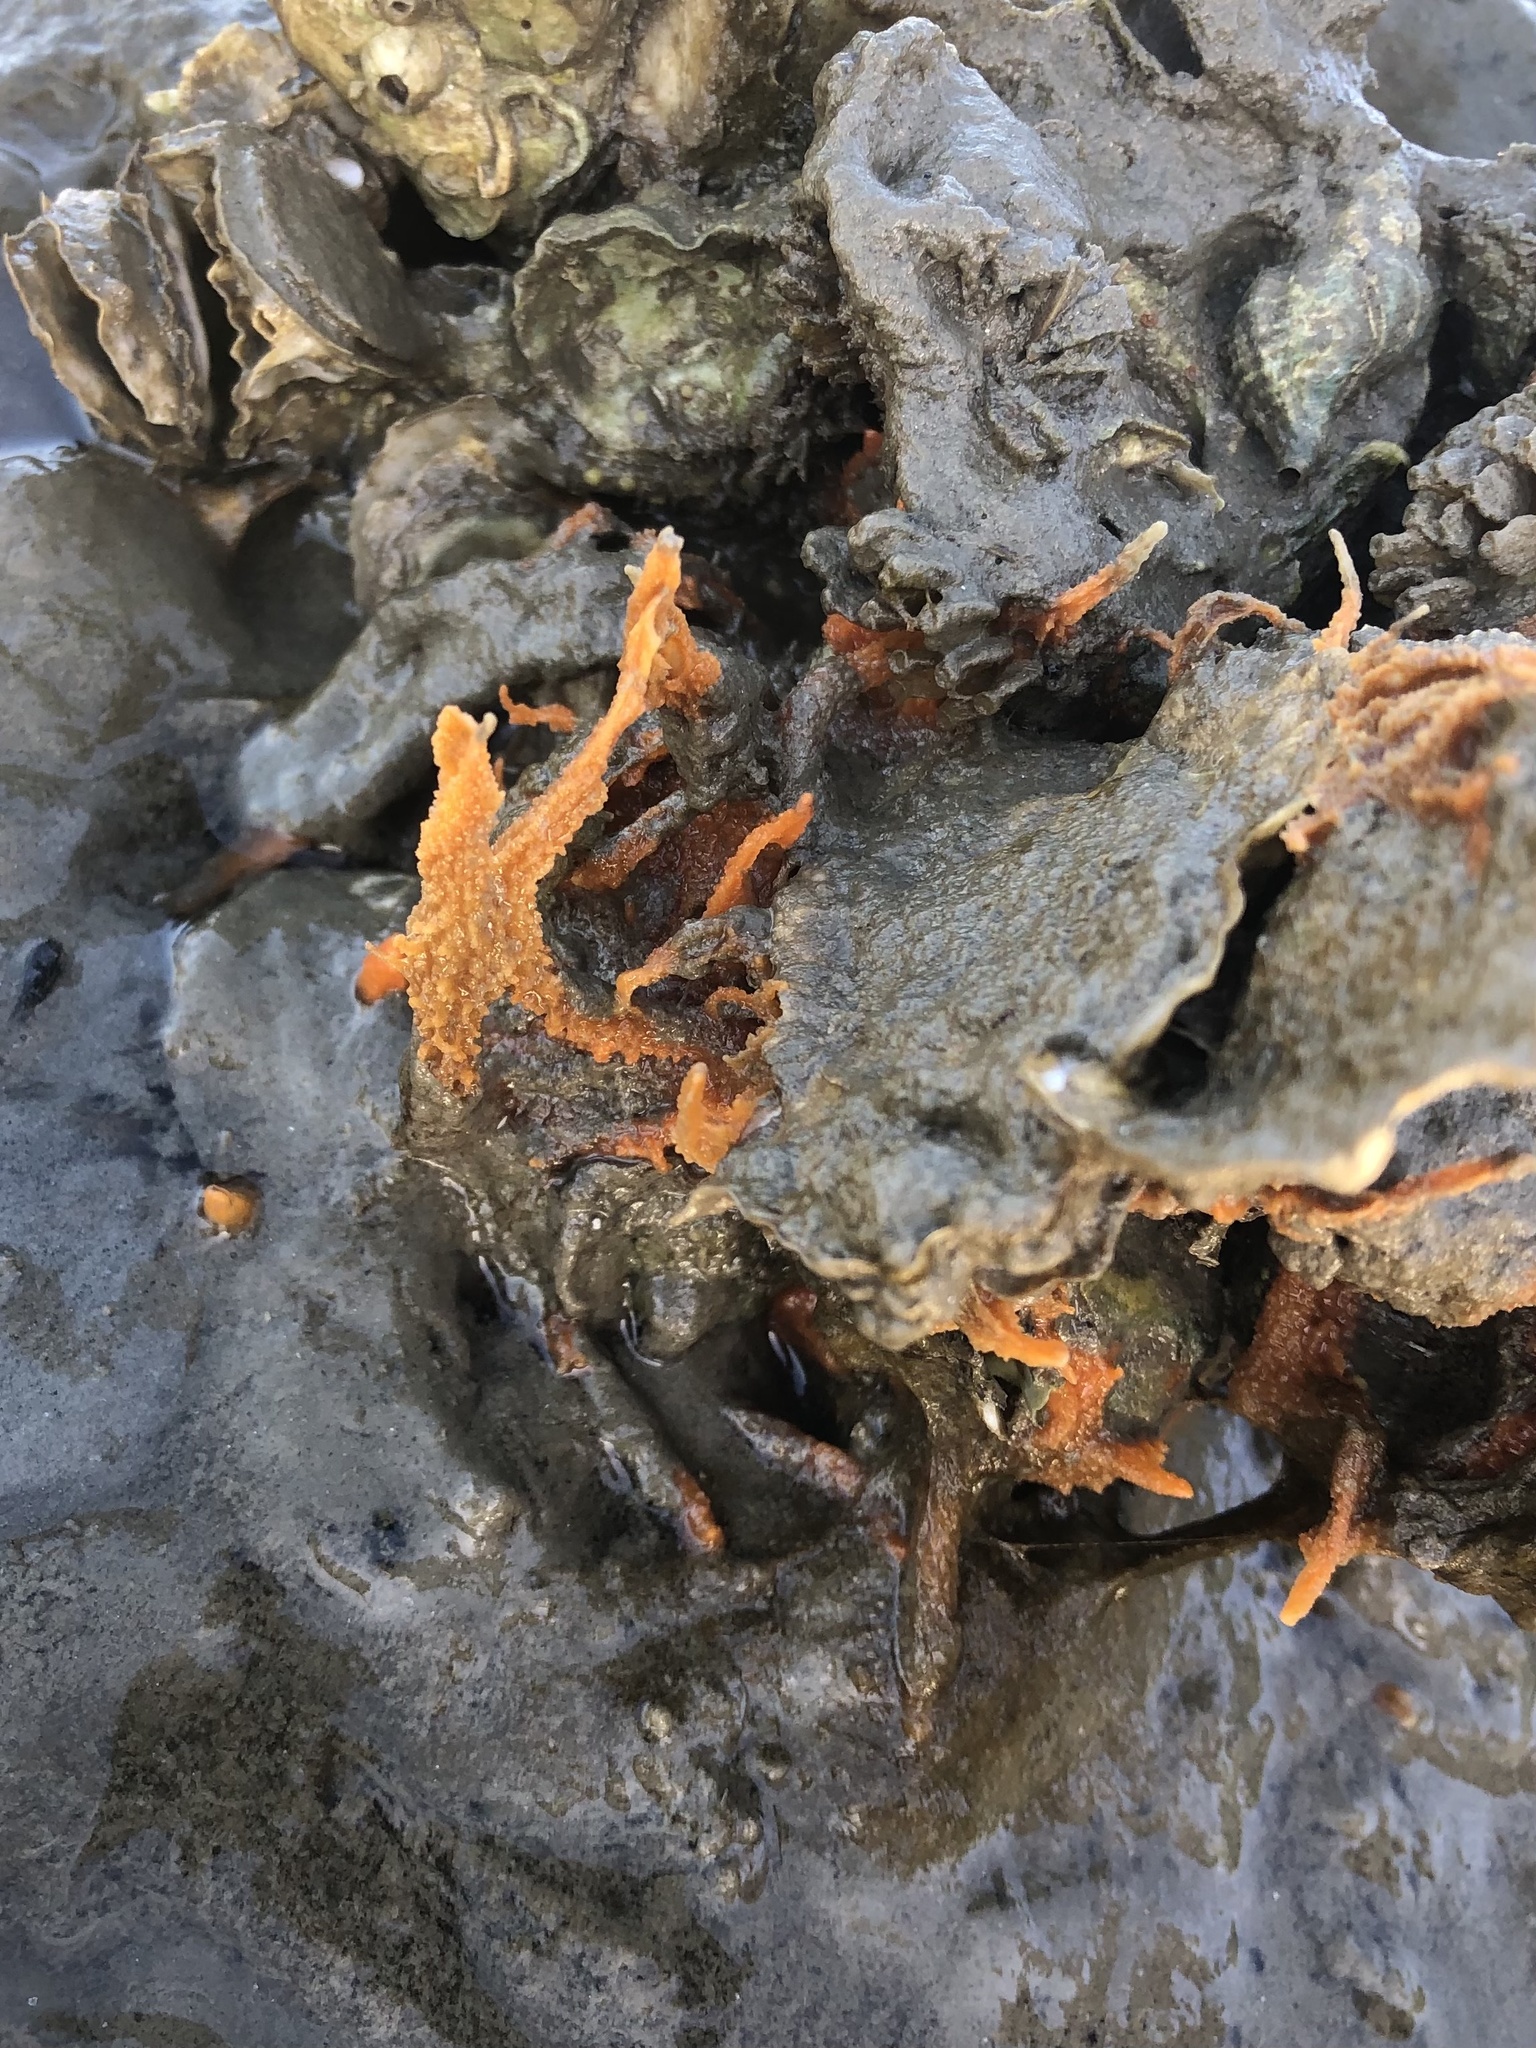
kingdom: Animalia
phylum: Porifera
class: Demospongiae
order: Suberitida
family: Halichondriidae
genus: Hymeniacidon
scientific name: Hymeniacidon heliophila
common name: Diurnal horny sponge
